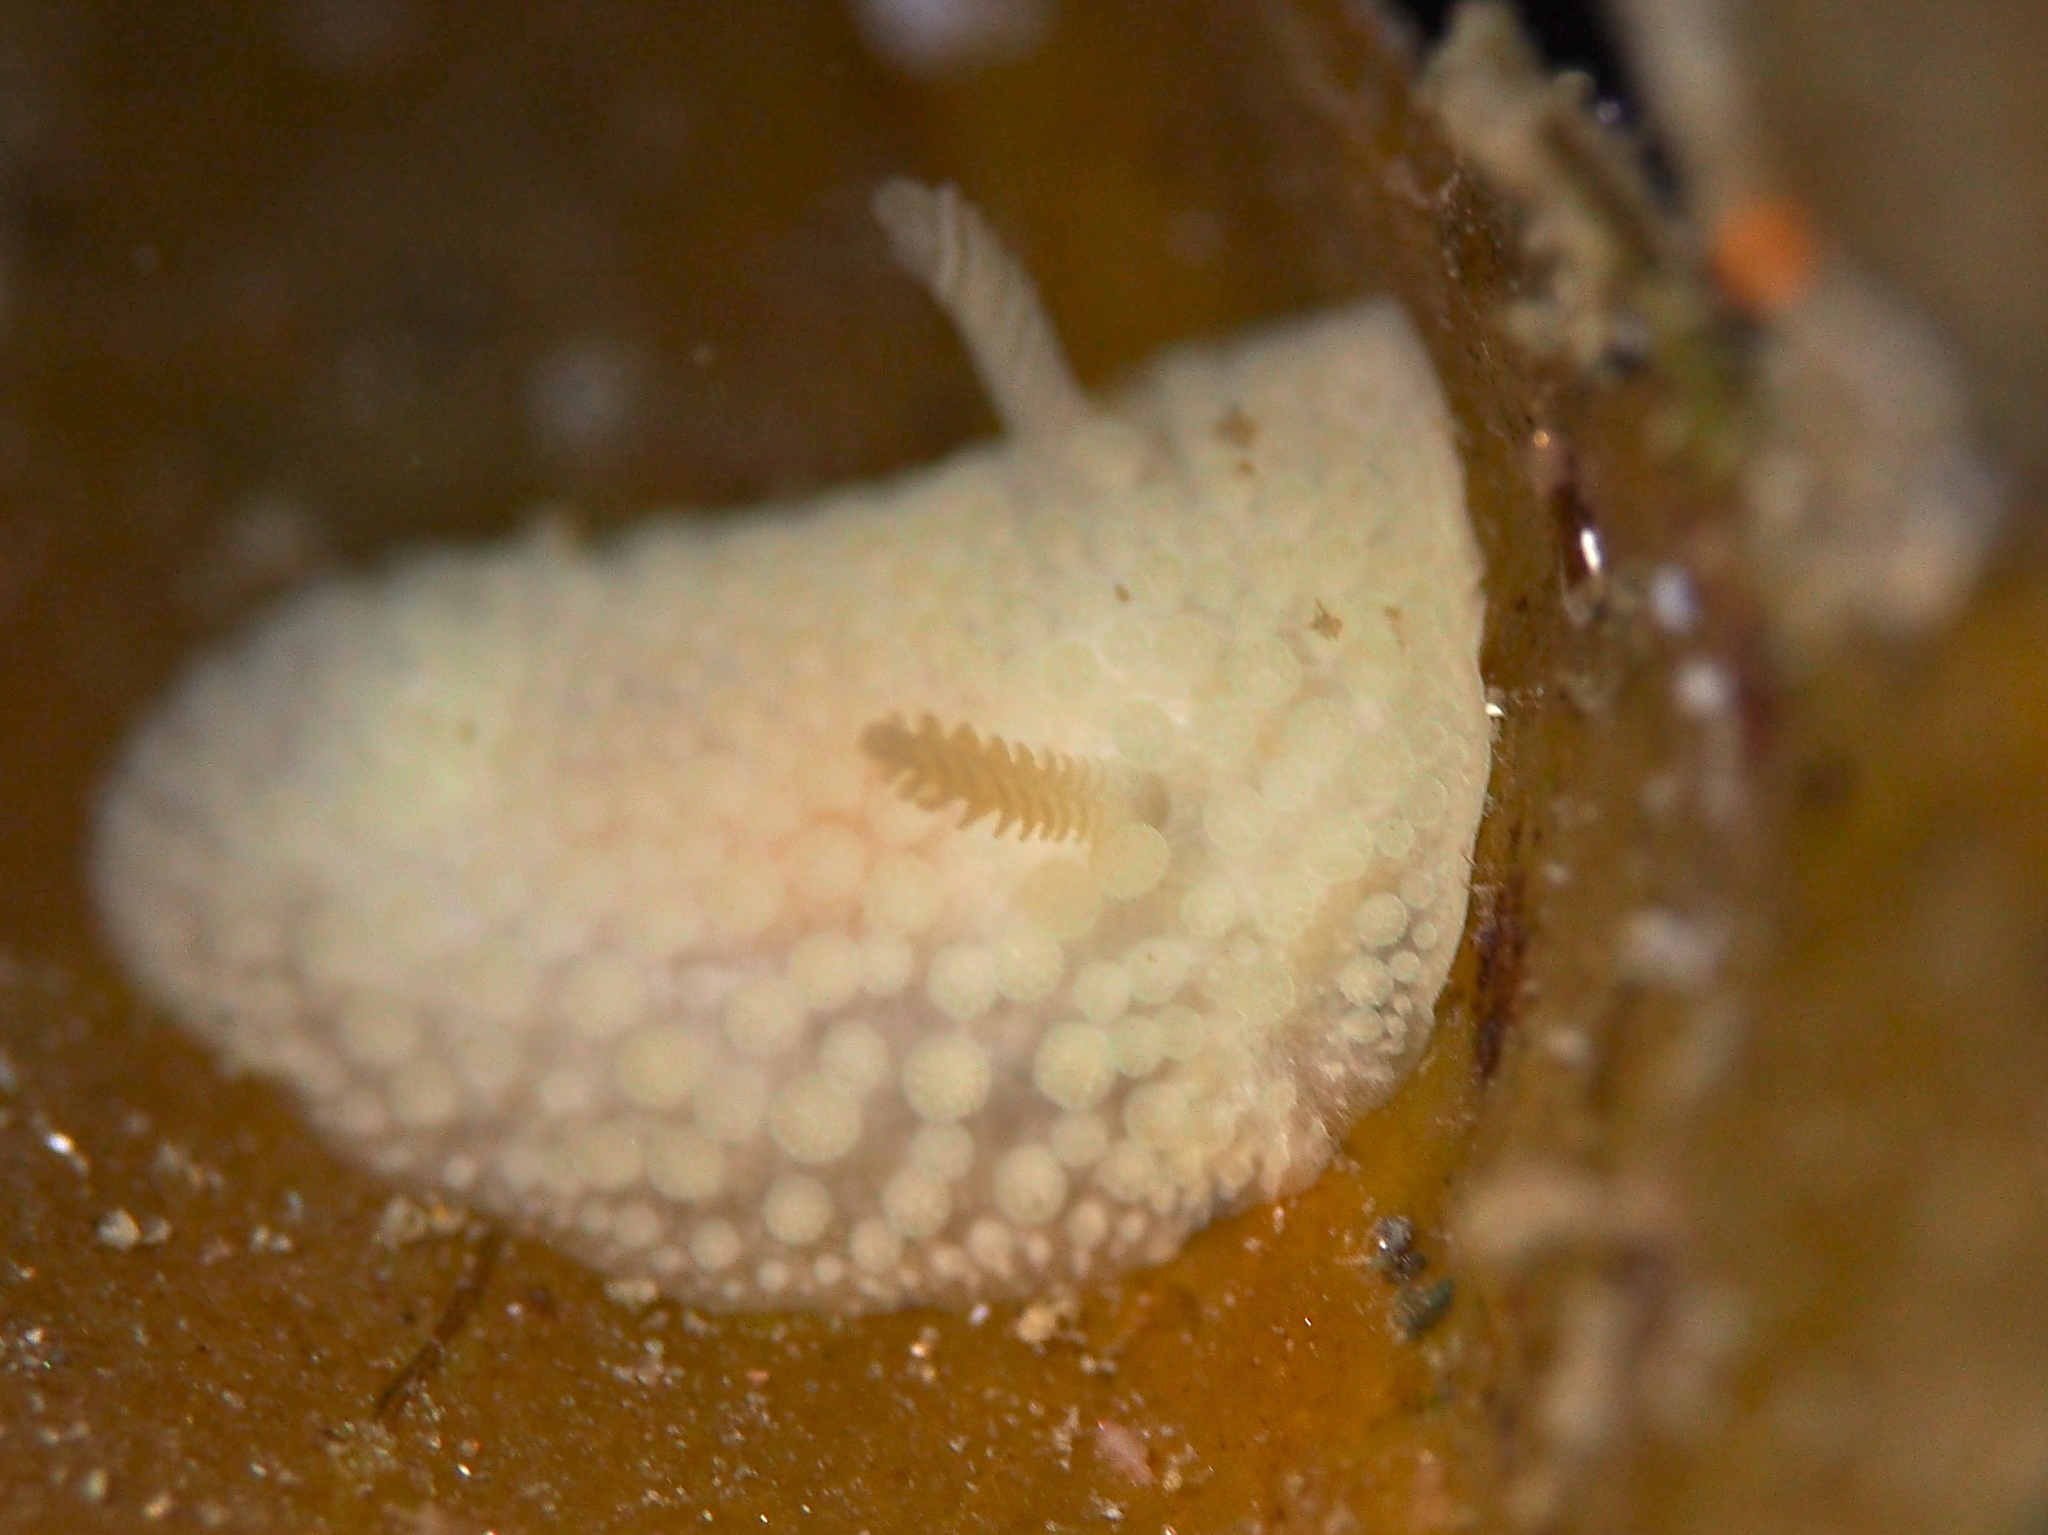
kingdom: Animalia
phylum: Mollusca
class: Gastropoda
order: Nudibranchia
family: Onchidorididae
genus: Onchidoris
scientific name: Onchidoris muricata
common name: Rough doris
